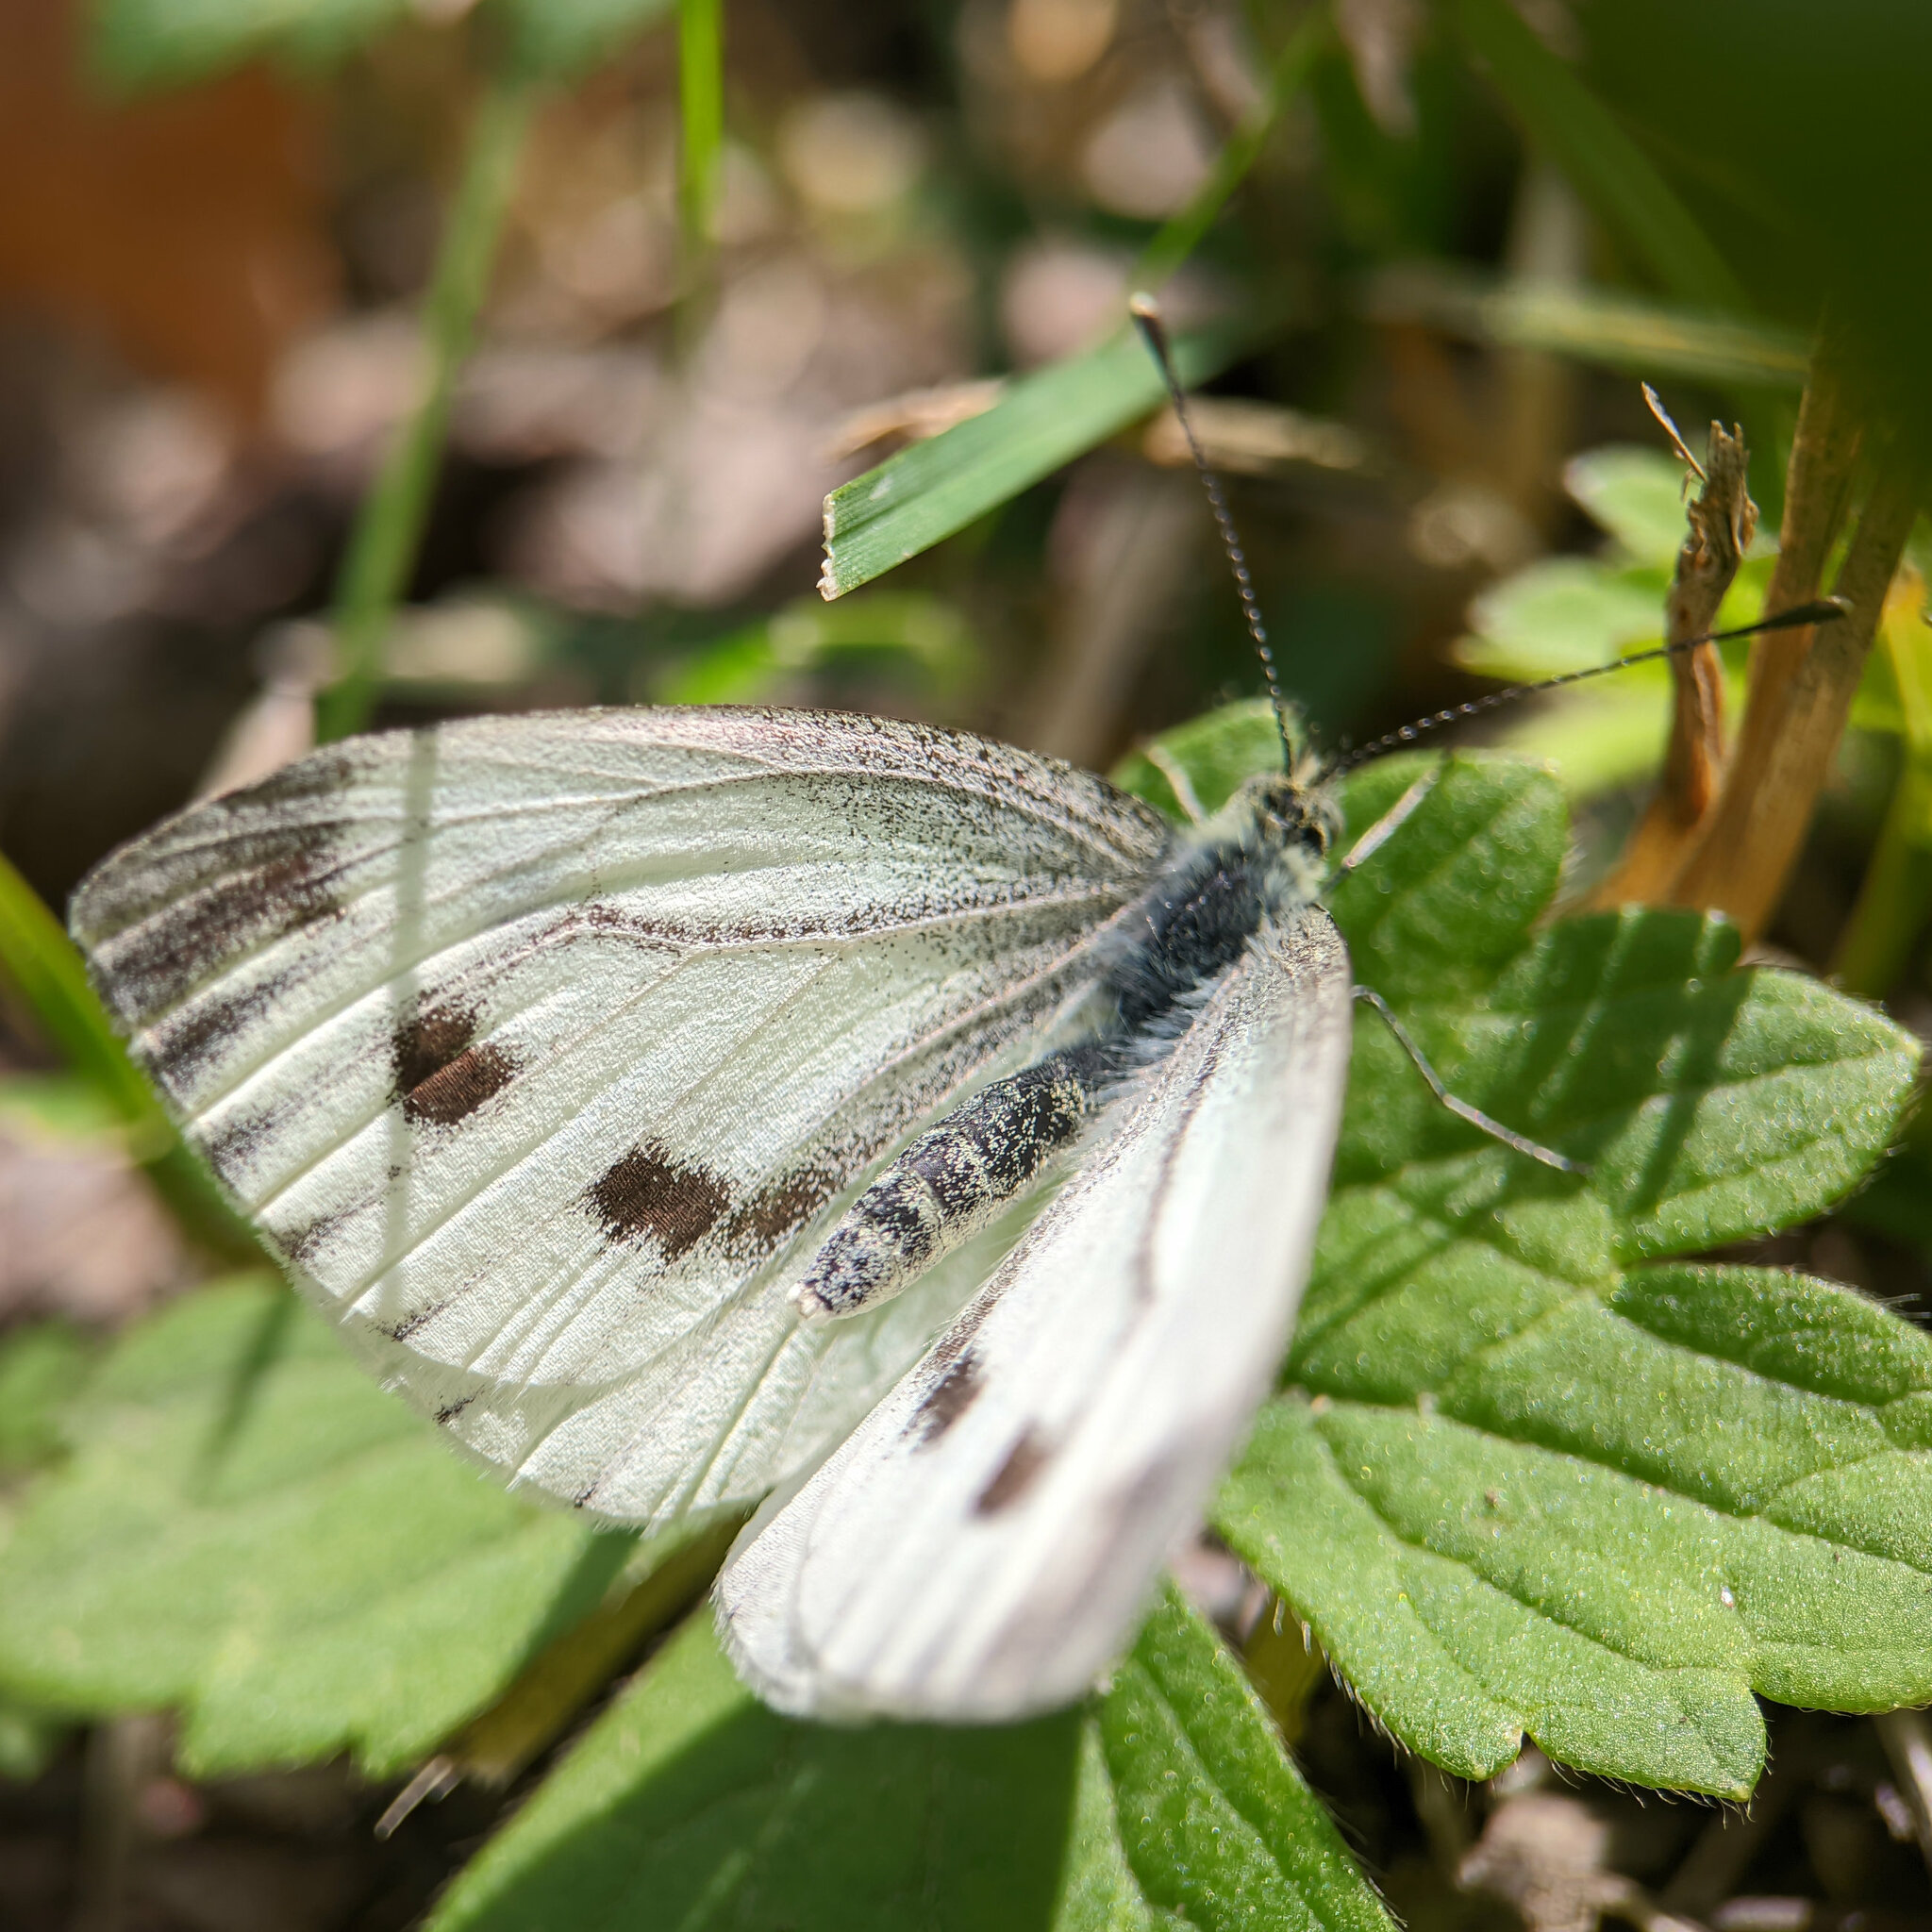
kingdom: Animalia
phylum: Arthropoda
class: Insecta
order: Lepidoptera
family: Pieridae
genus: Pieris
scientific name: Pieris napi
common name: Green-veined white
